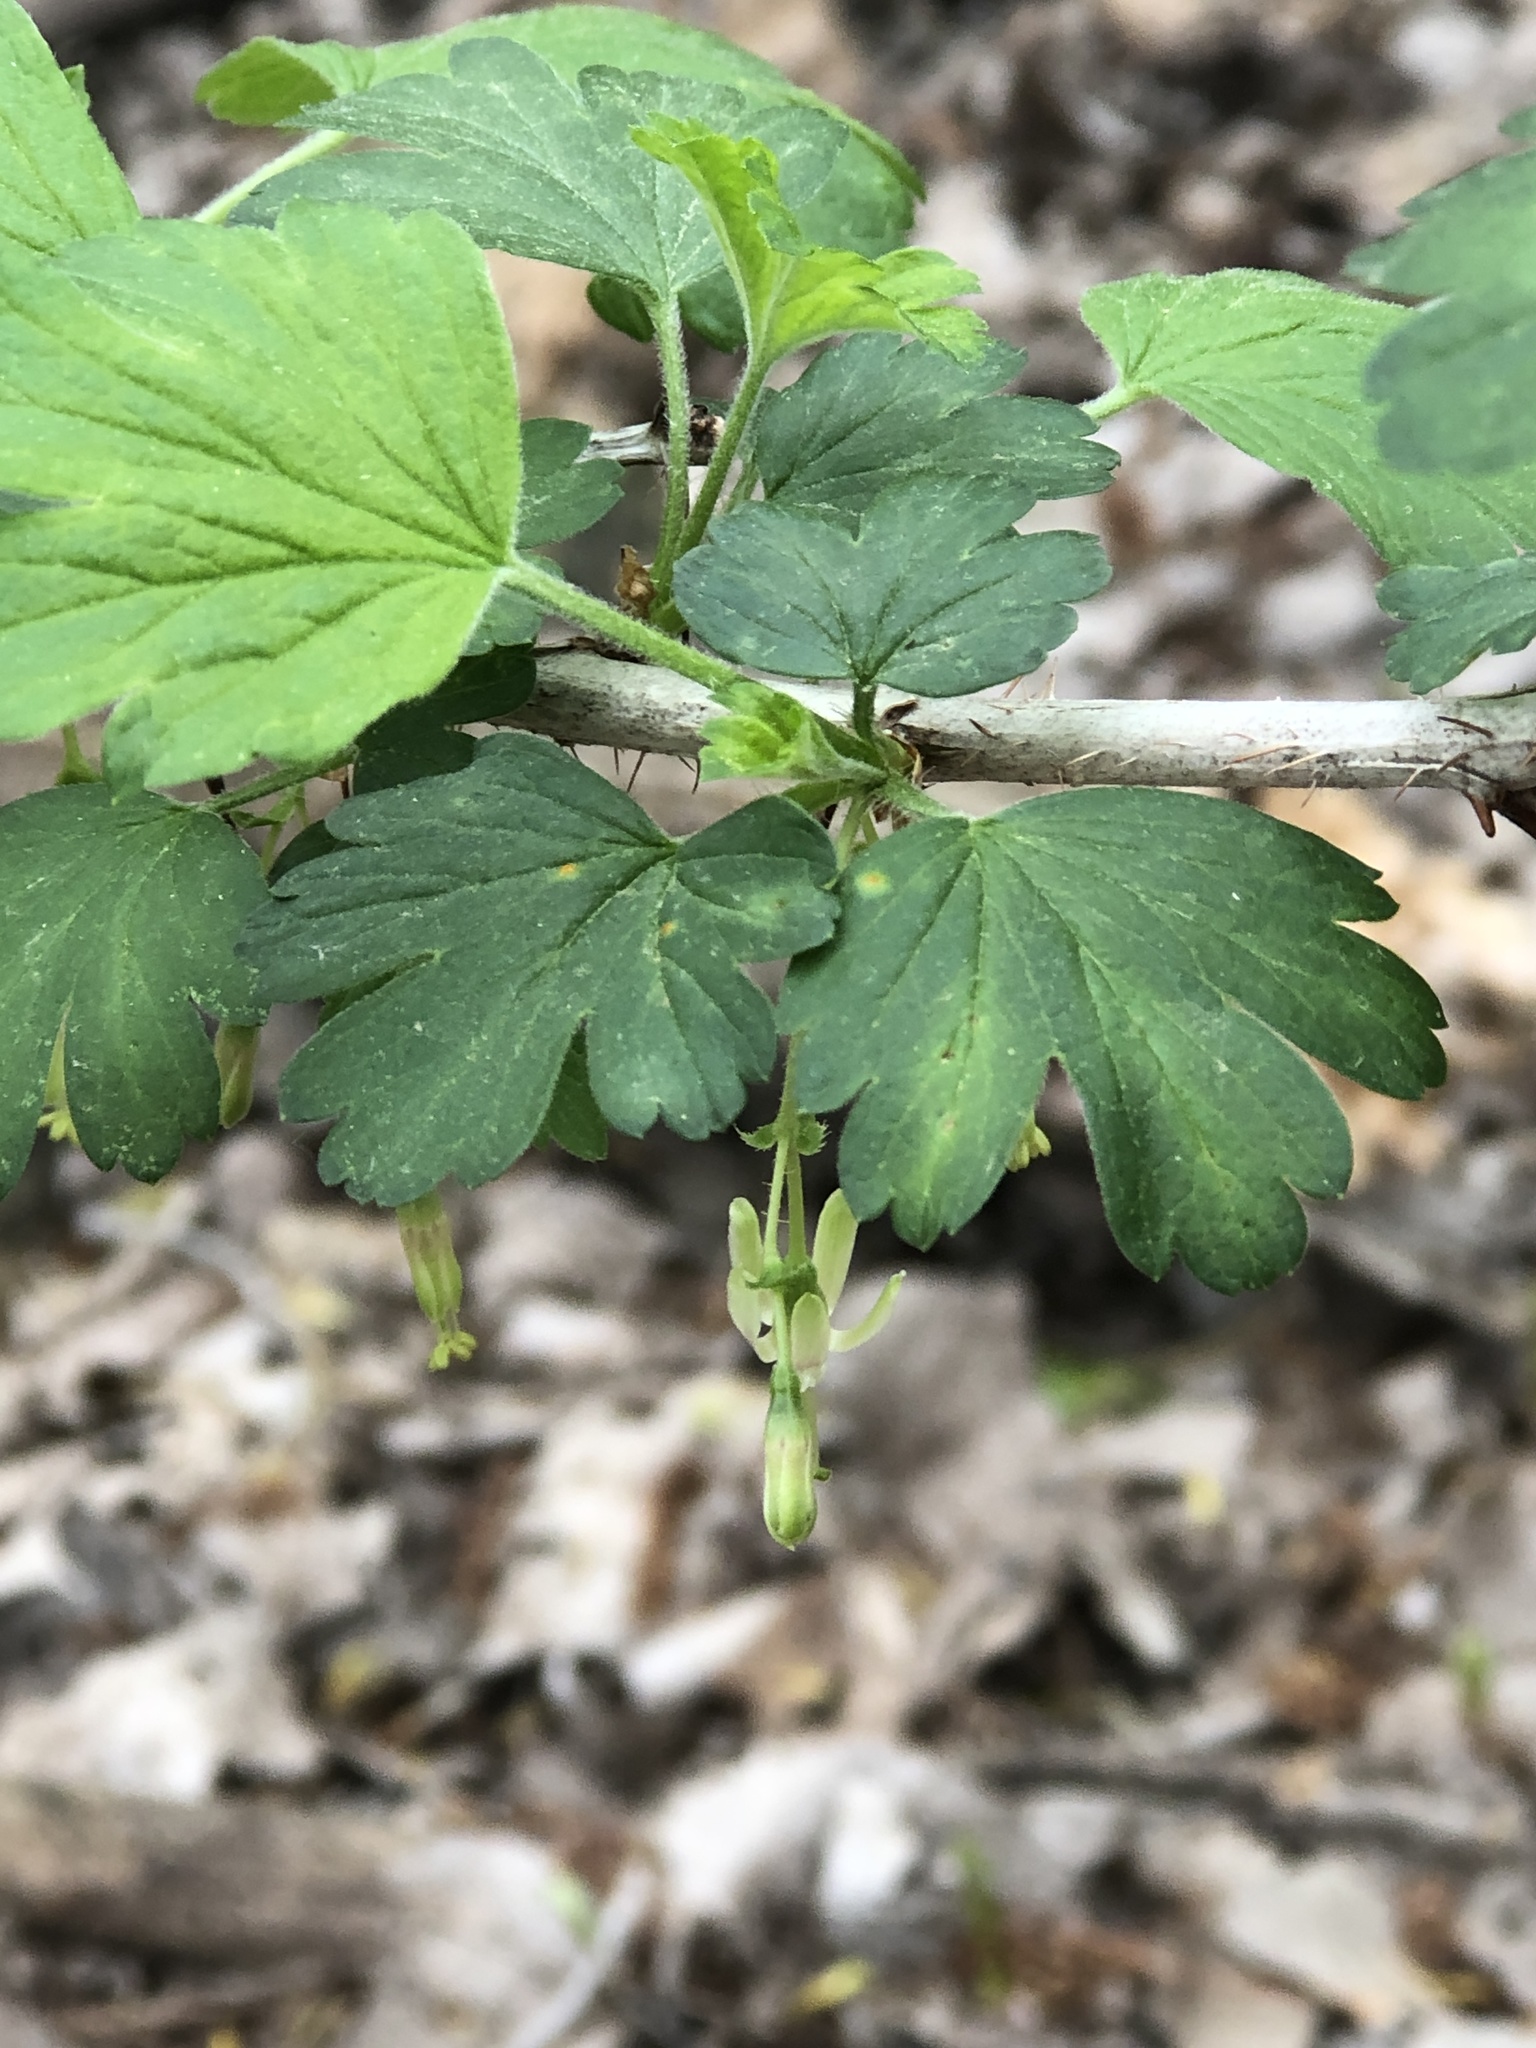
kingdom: Plantae
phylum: Tracheophyta
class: Magnoliopsida
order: Saxifragales
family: Grossulariaceae
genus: Ribes
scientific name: Ribes missouriense
